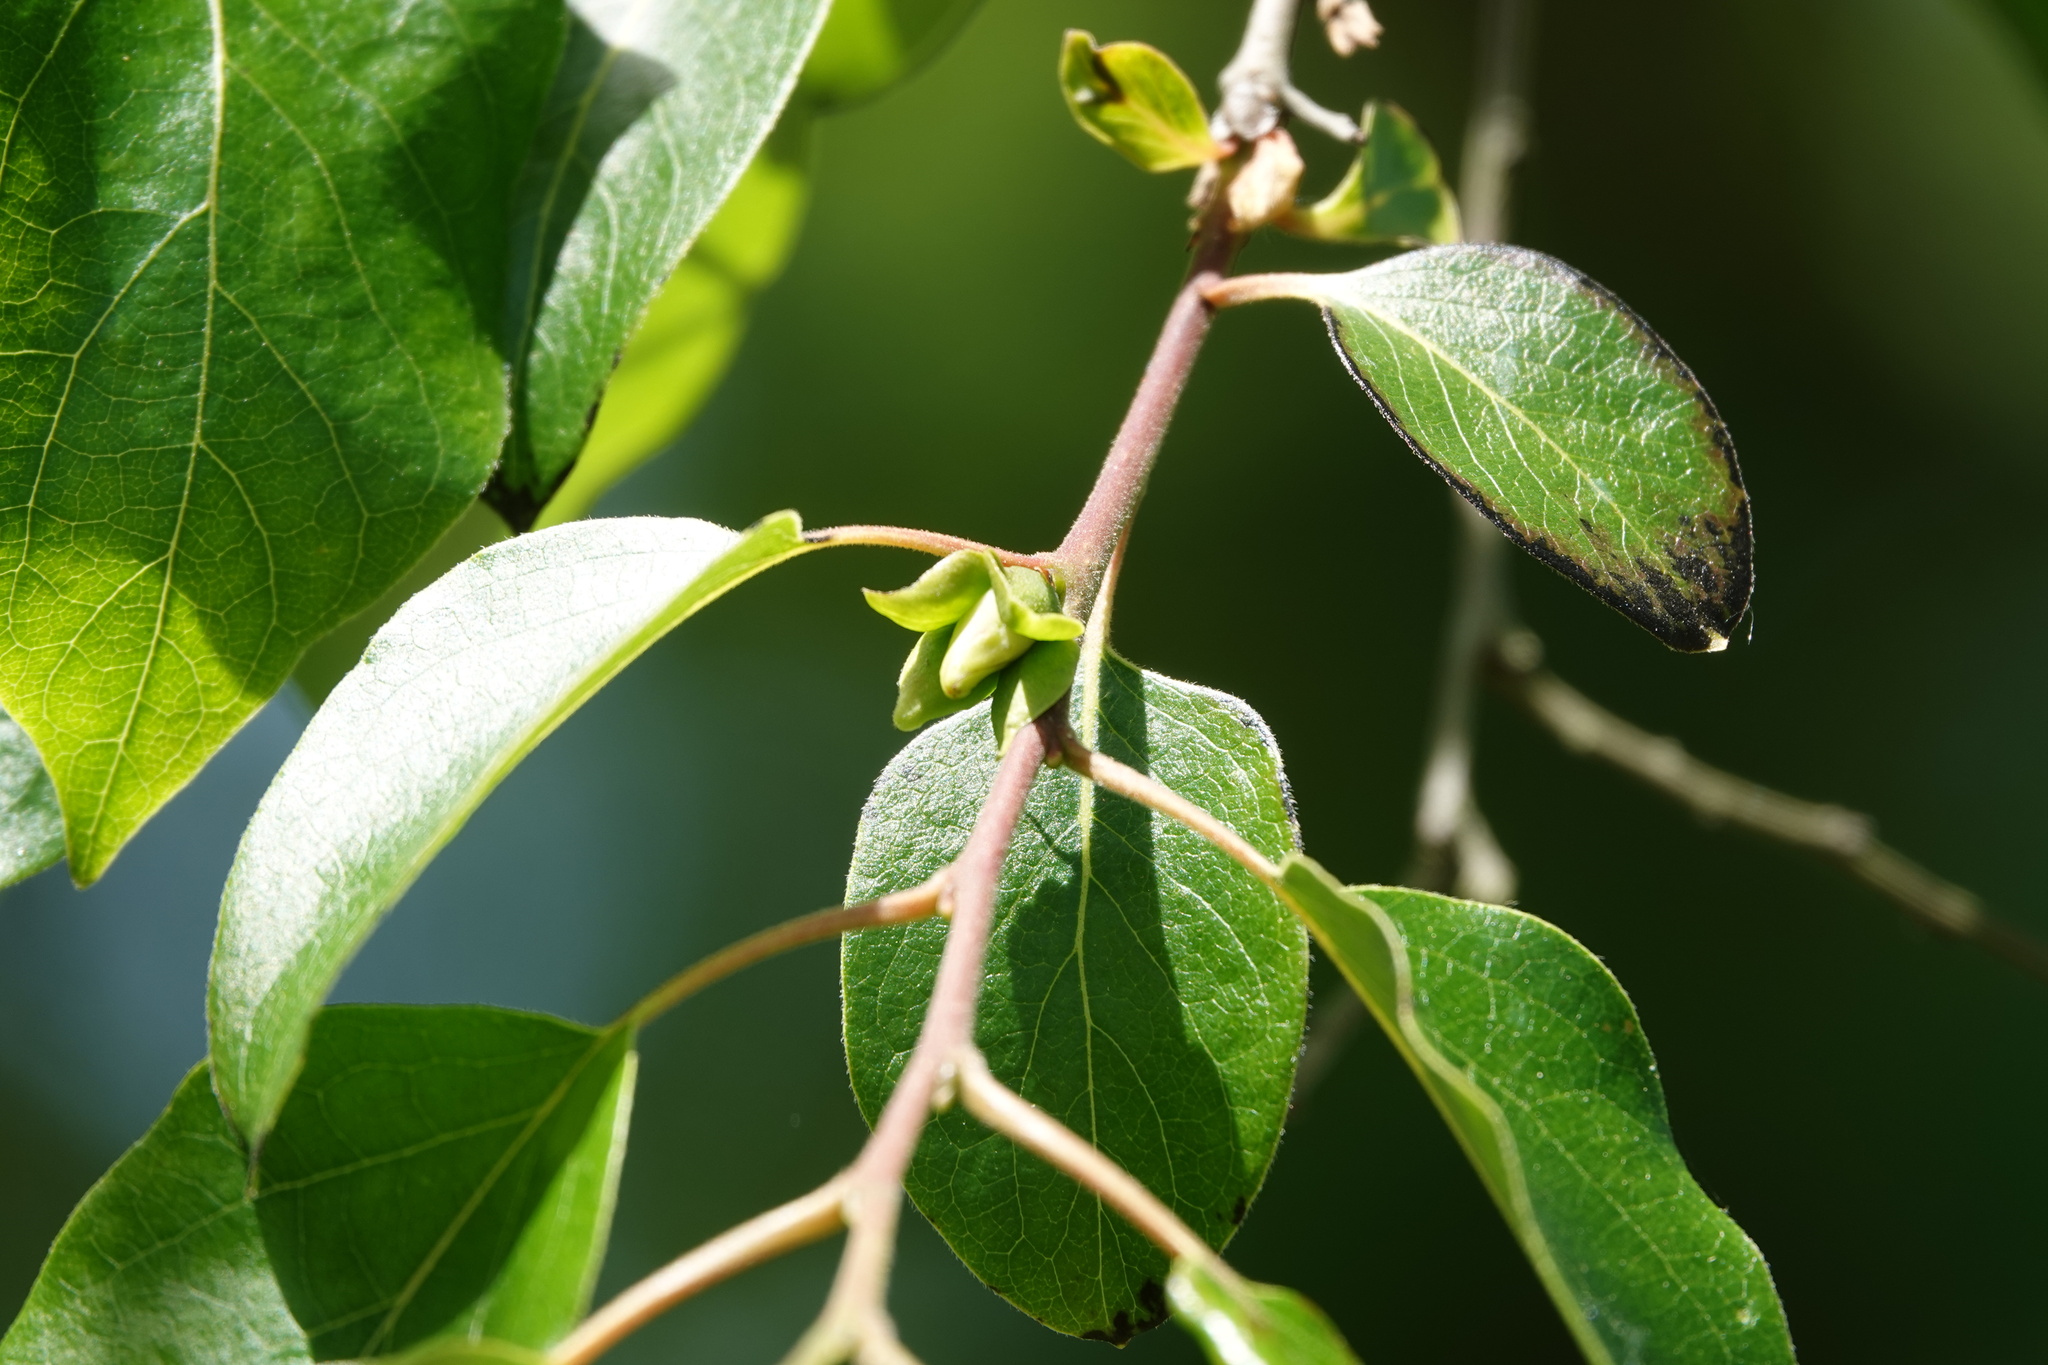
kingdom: Plantae
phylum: Tracheophyta
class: Magnoliopsida
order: Ericales
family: Ebenaceae
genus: Diospyros
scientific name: Diospyros virginiana
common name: Persimmon
